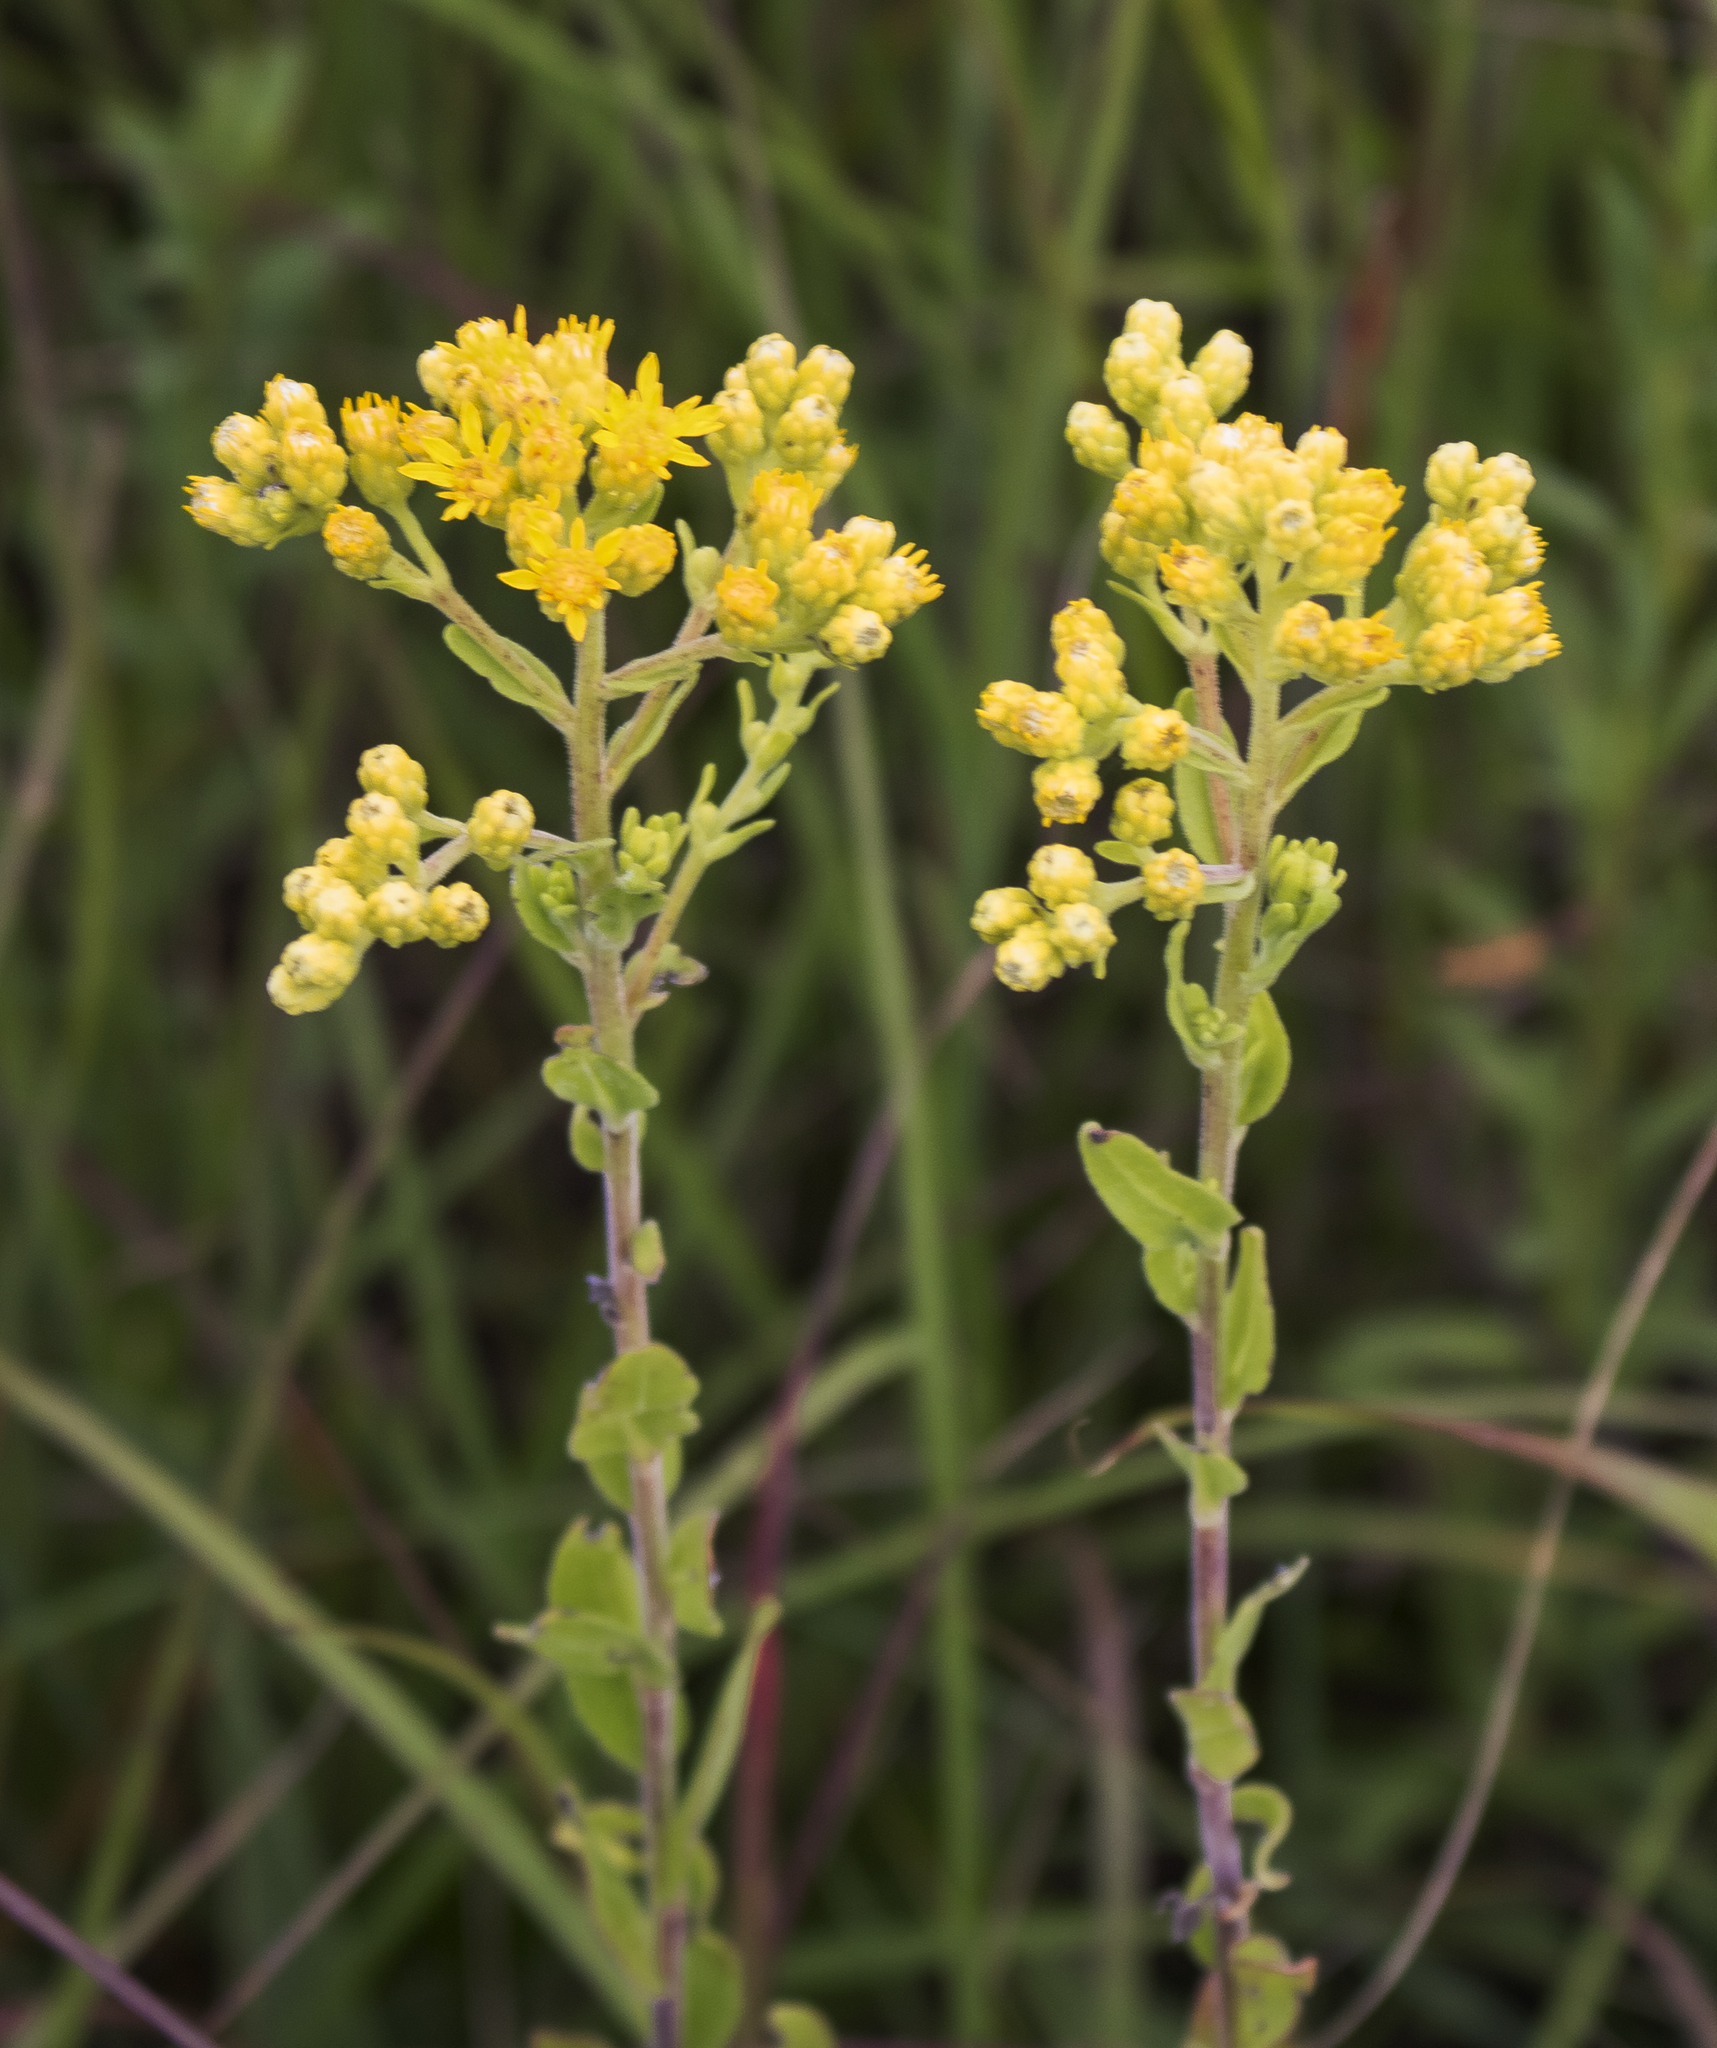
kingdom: Plantae
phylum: Tracheophyta
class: Magnoliopsida
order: Asterales
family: Asteraceae
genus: Solidago
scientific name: Solidago rigida
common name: Rigid goldenrod
